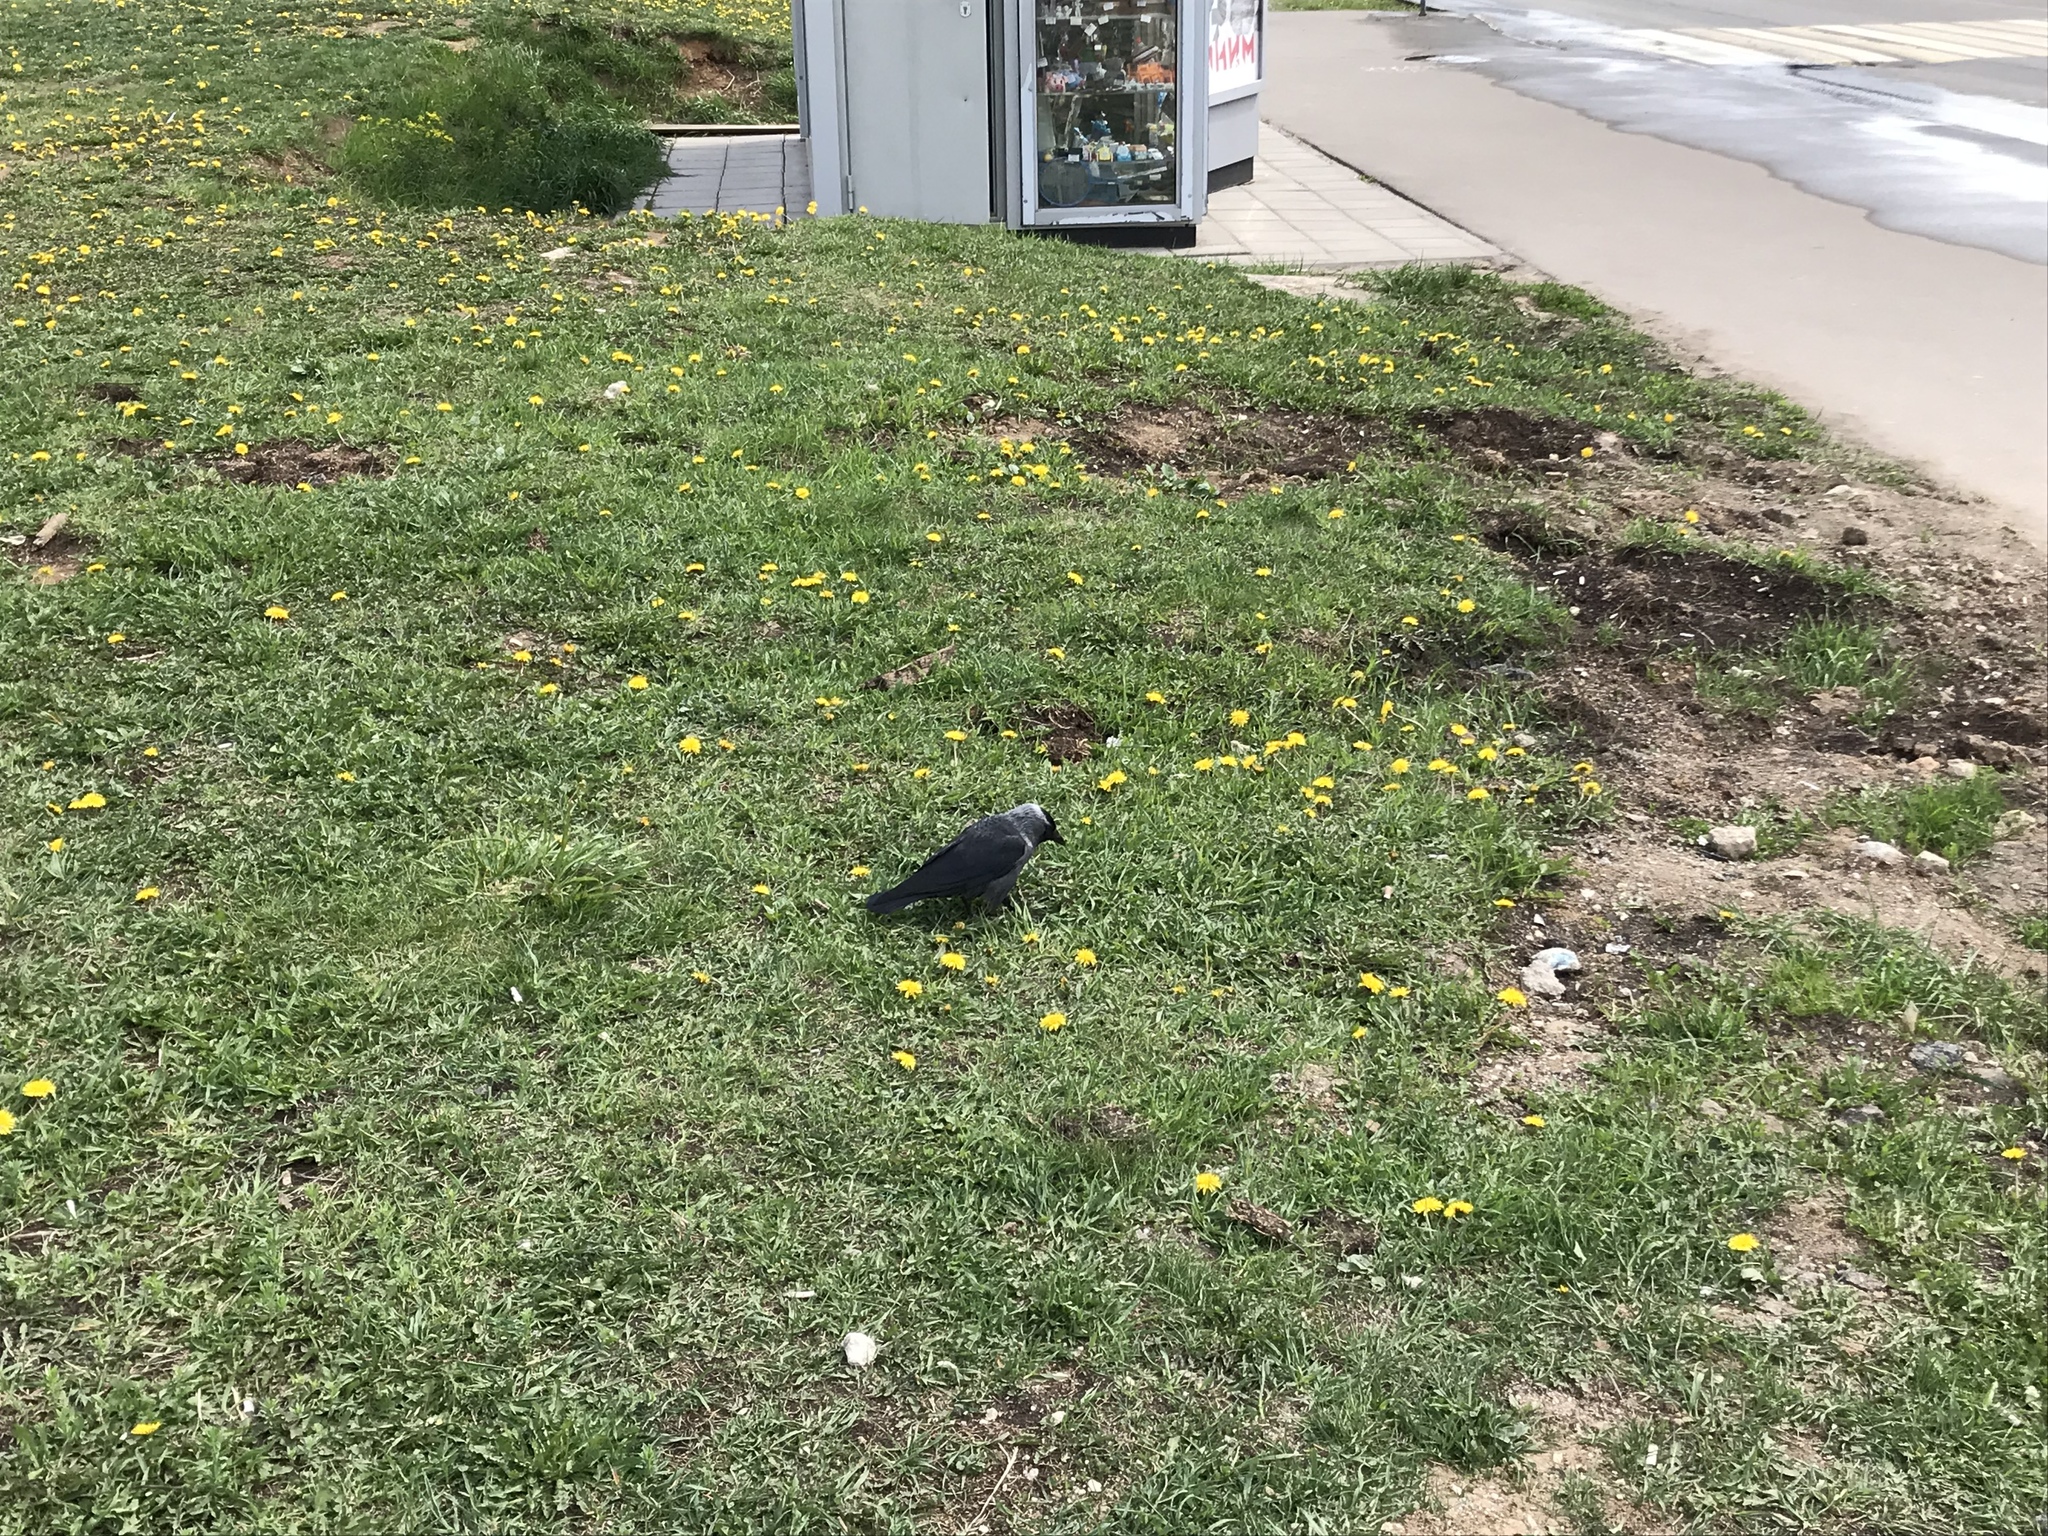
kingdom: Animalia
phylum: Chordata
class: Aves
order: Passeriformes
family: Corvidae
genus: Coloeus
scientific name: Coloeus monedula
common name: Western jackdaw
